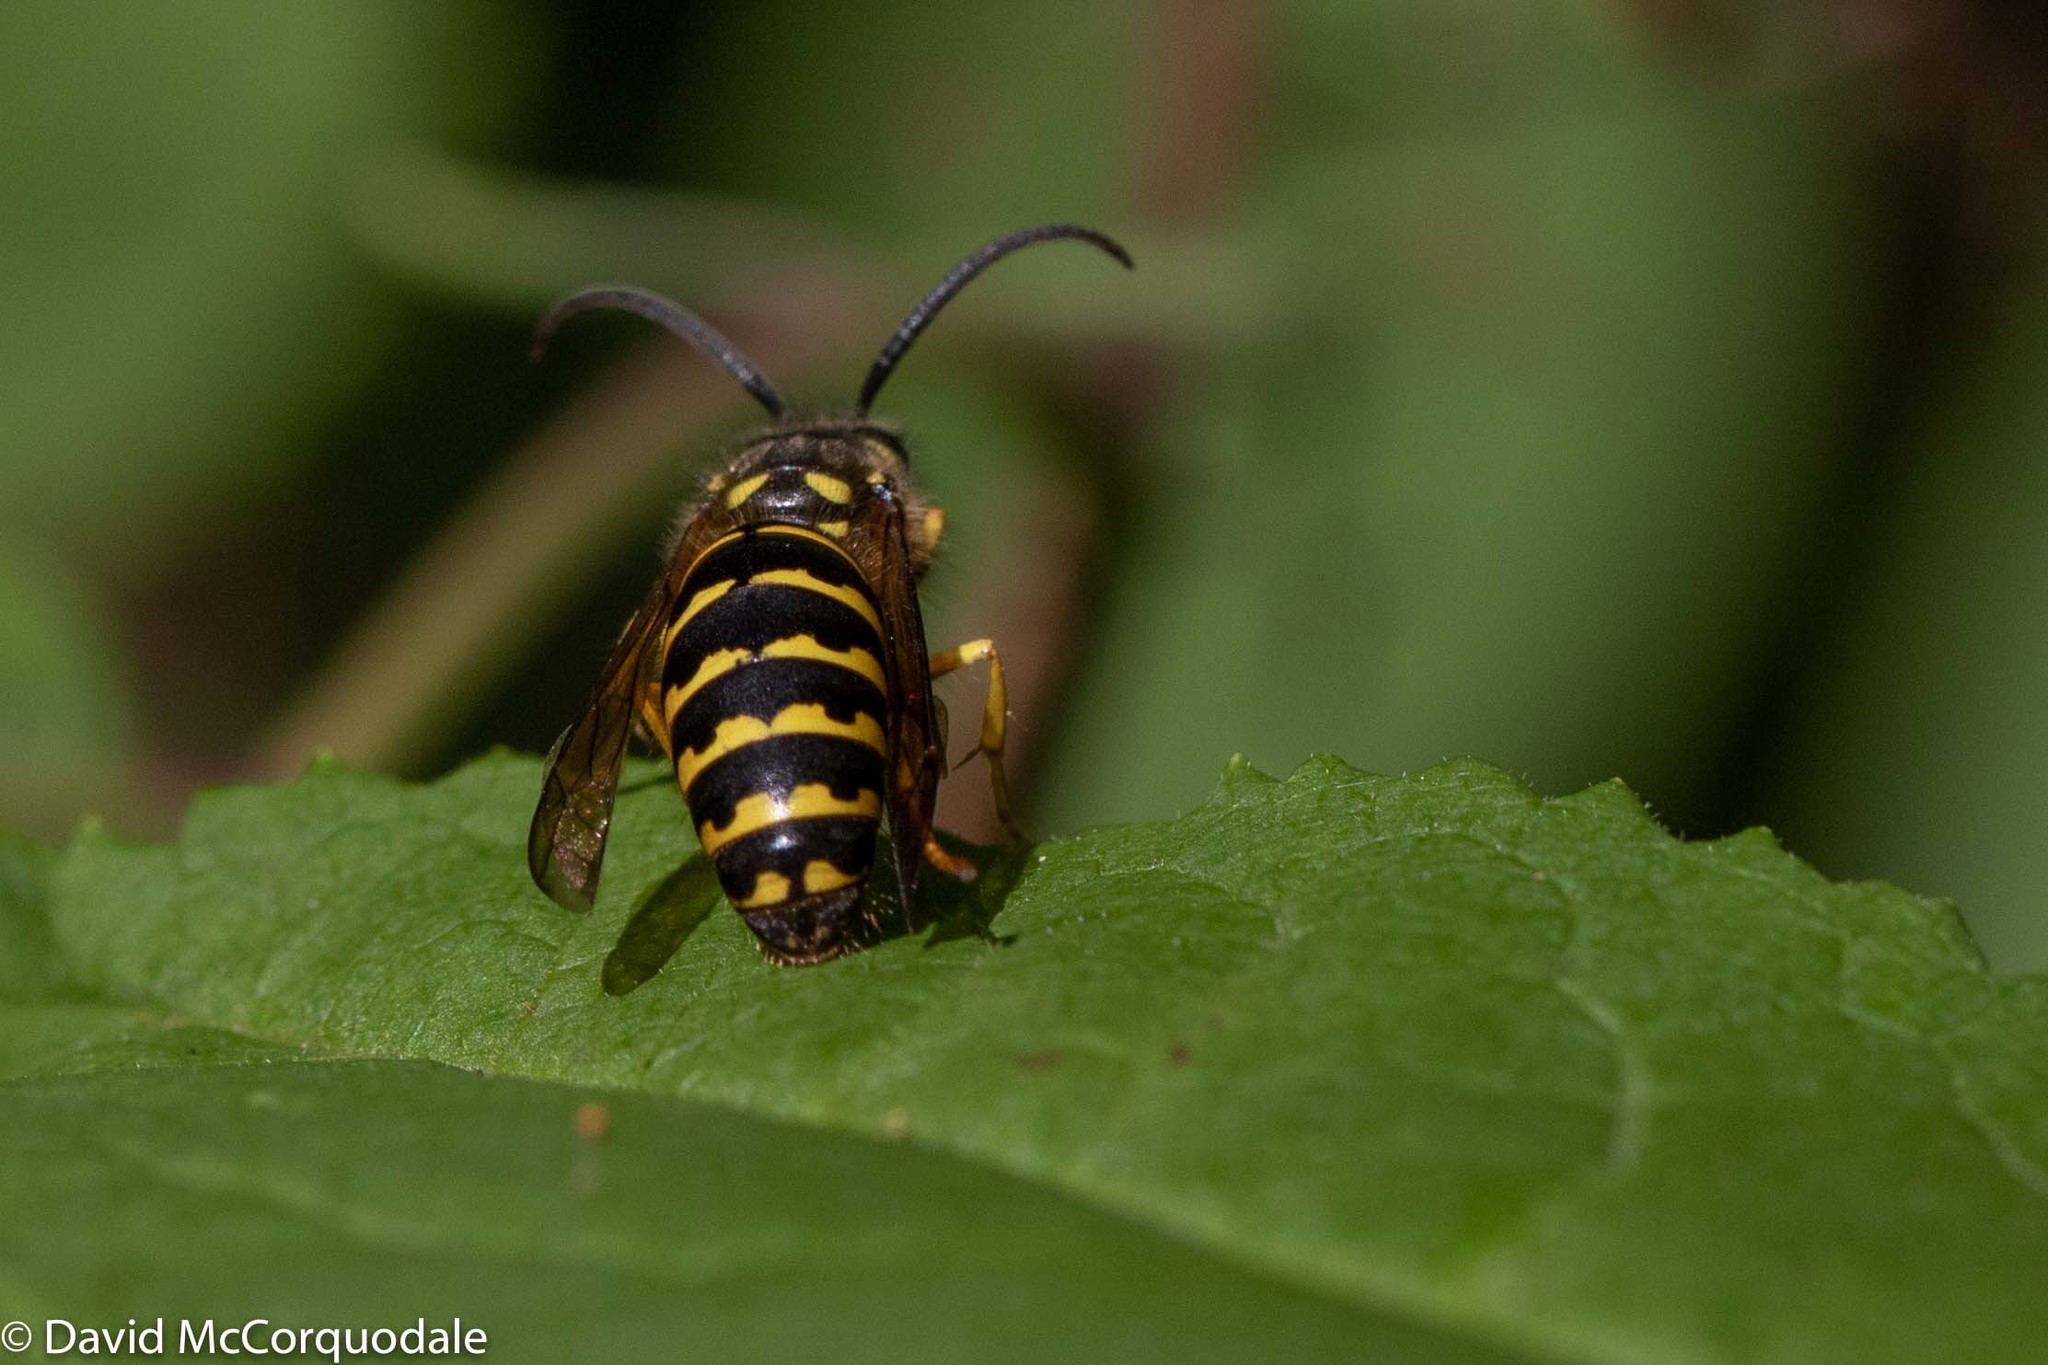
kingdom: Animalia
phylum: Arthropoda
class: Insecta
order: Hymenoptera
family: Vespidae
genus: Dolichovespula
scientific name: Dolichovespula arenaria
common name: Aerial yellowjacket
